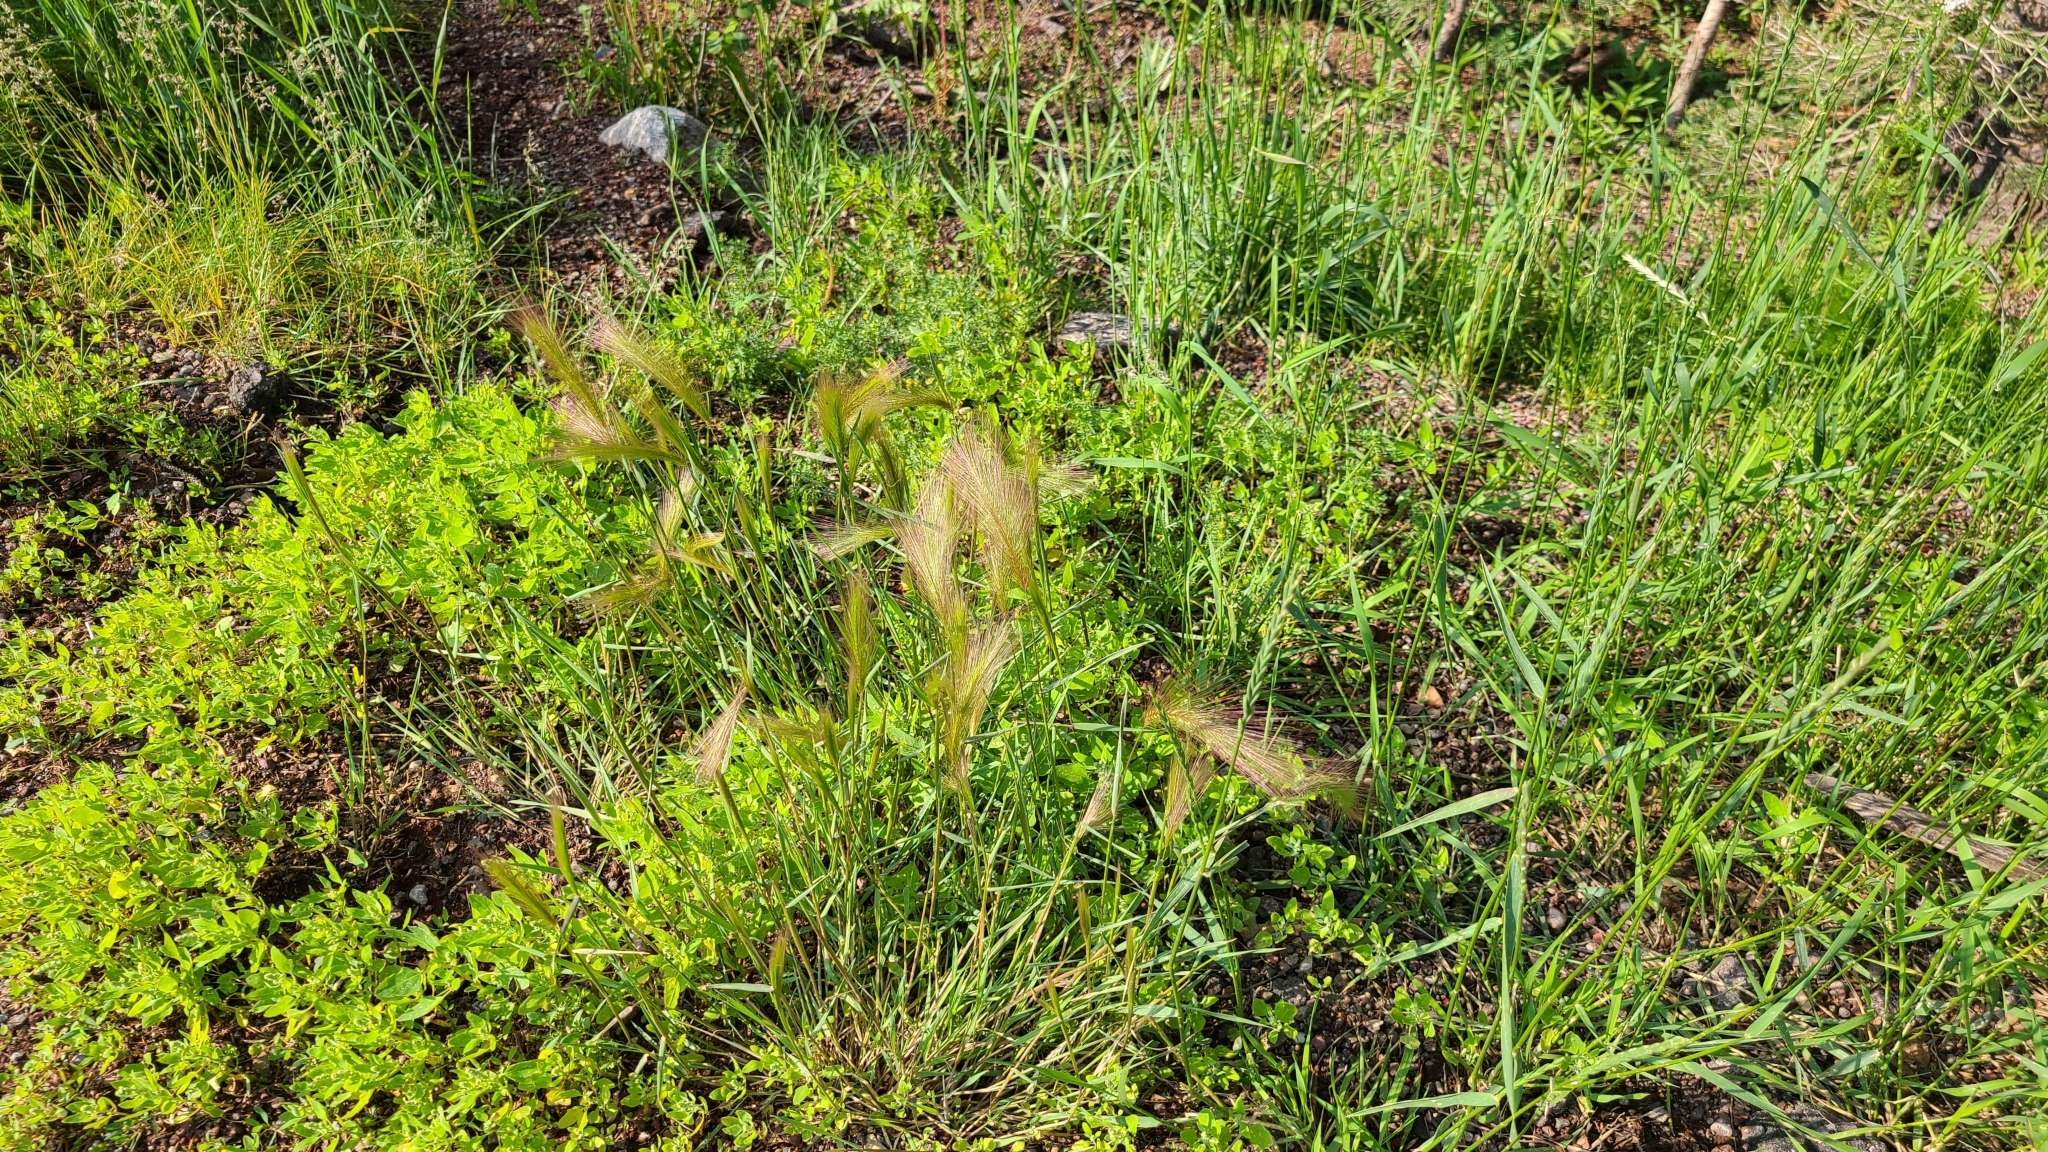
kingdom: Plantae
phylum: Tracheophyta
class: Liliopsida
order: Poales
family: Poaceae
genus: Hordeum
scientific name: Hordeum jubatum
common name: Foxtail barley
